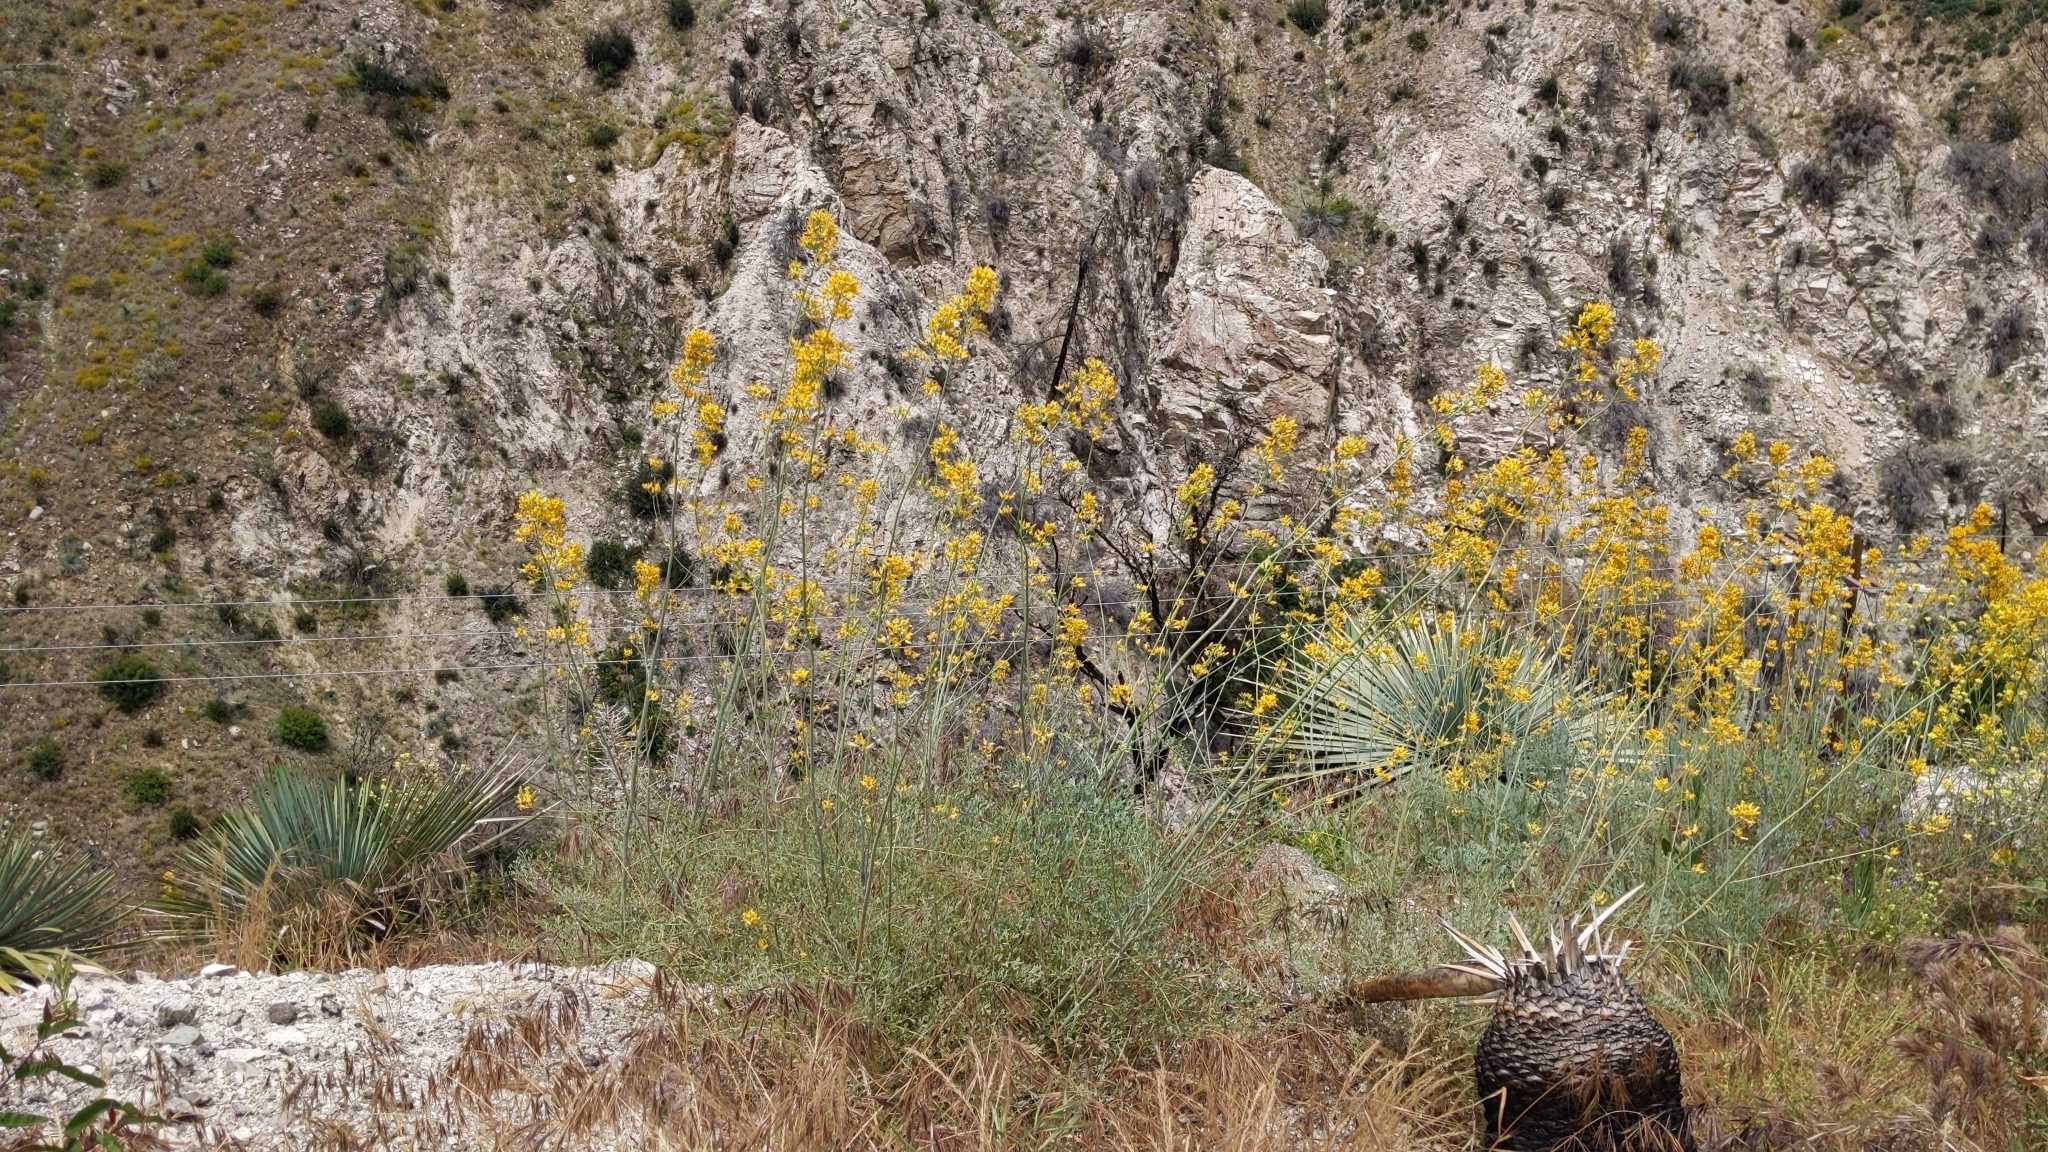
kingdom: Plantae
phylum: Tracheophyta
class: Magnoliopsida
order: Ranunculales
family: Papaveraceae
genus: Ehrendorferia
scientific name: Ehrendorferia chrysantha
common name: Golden eardrops
